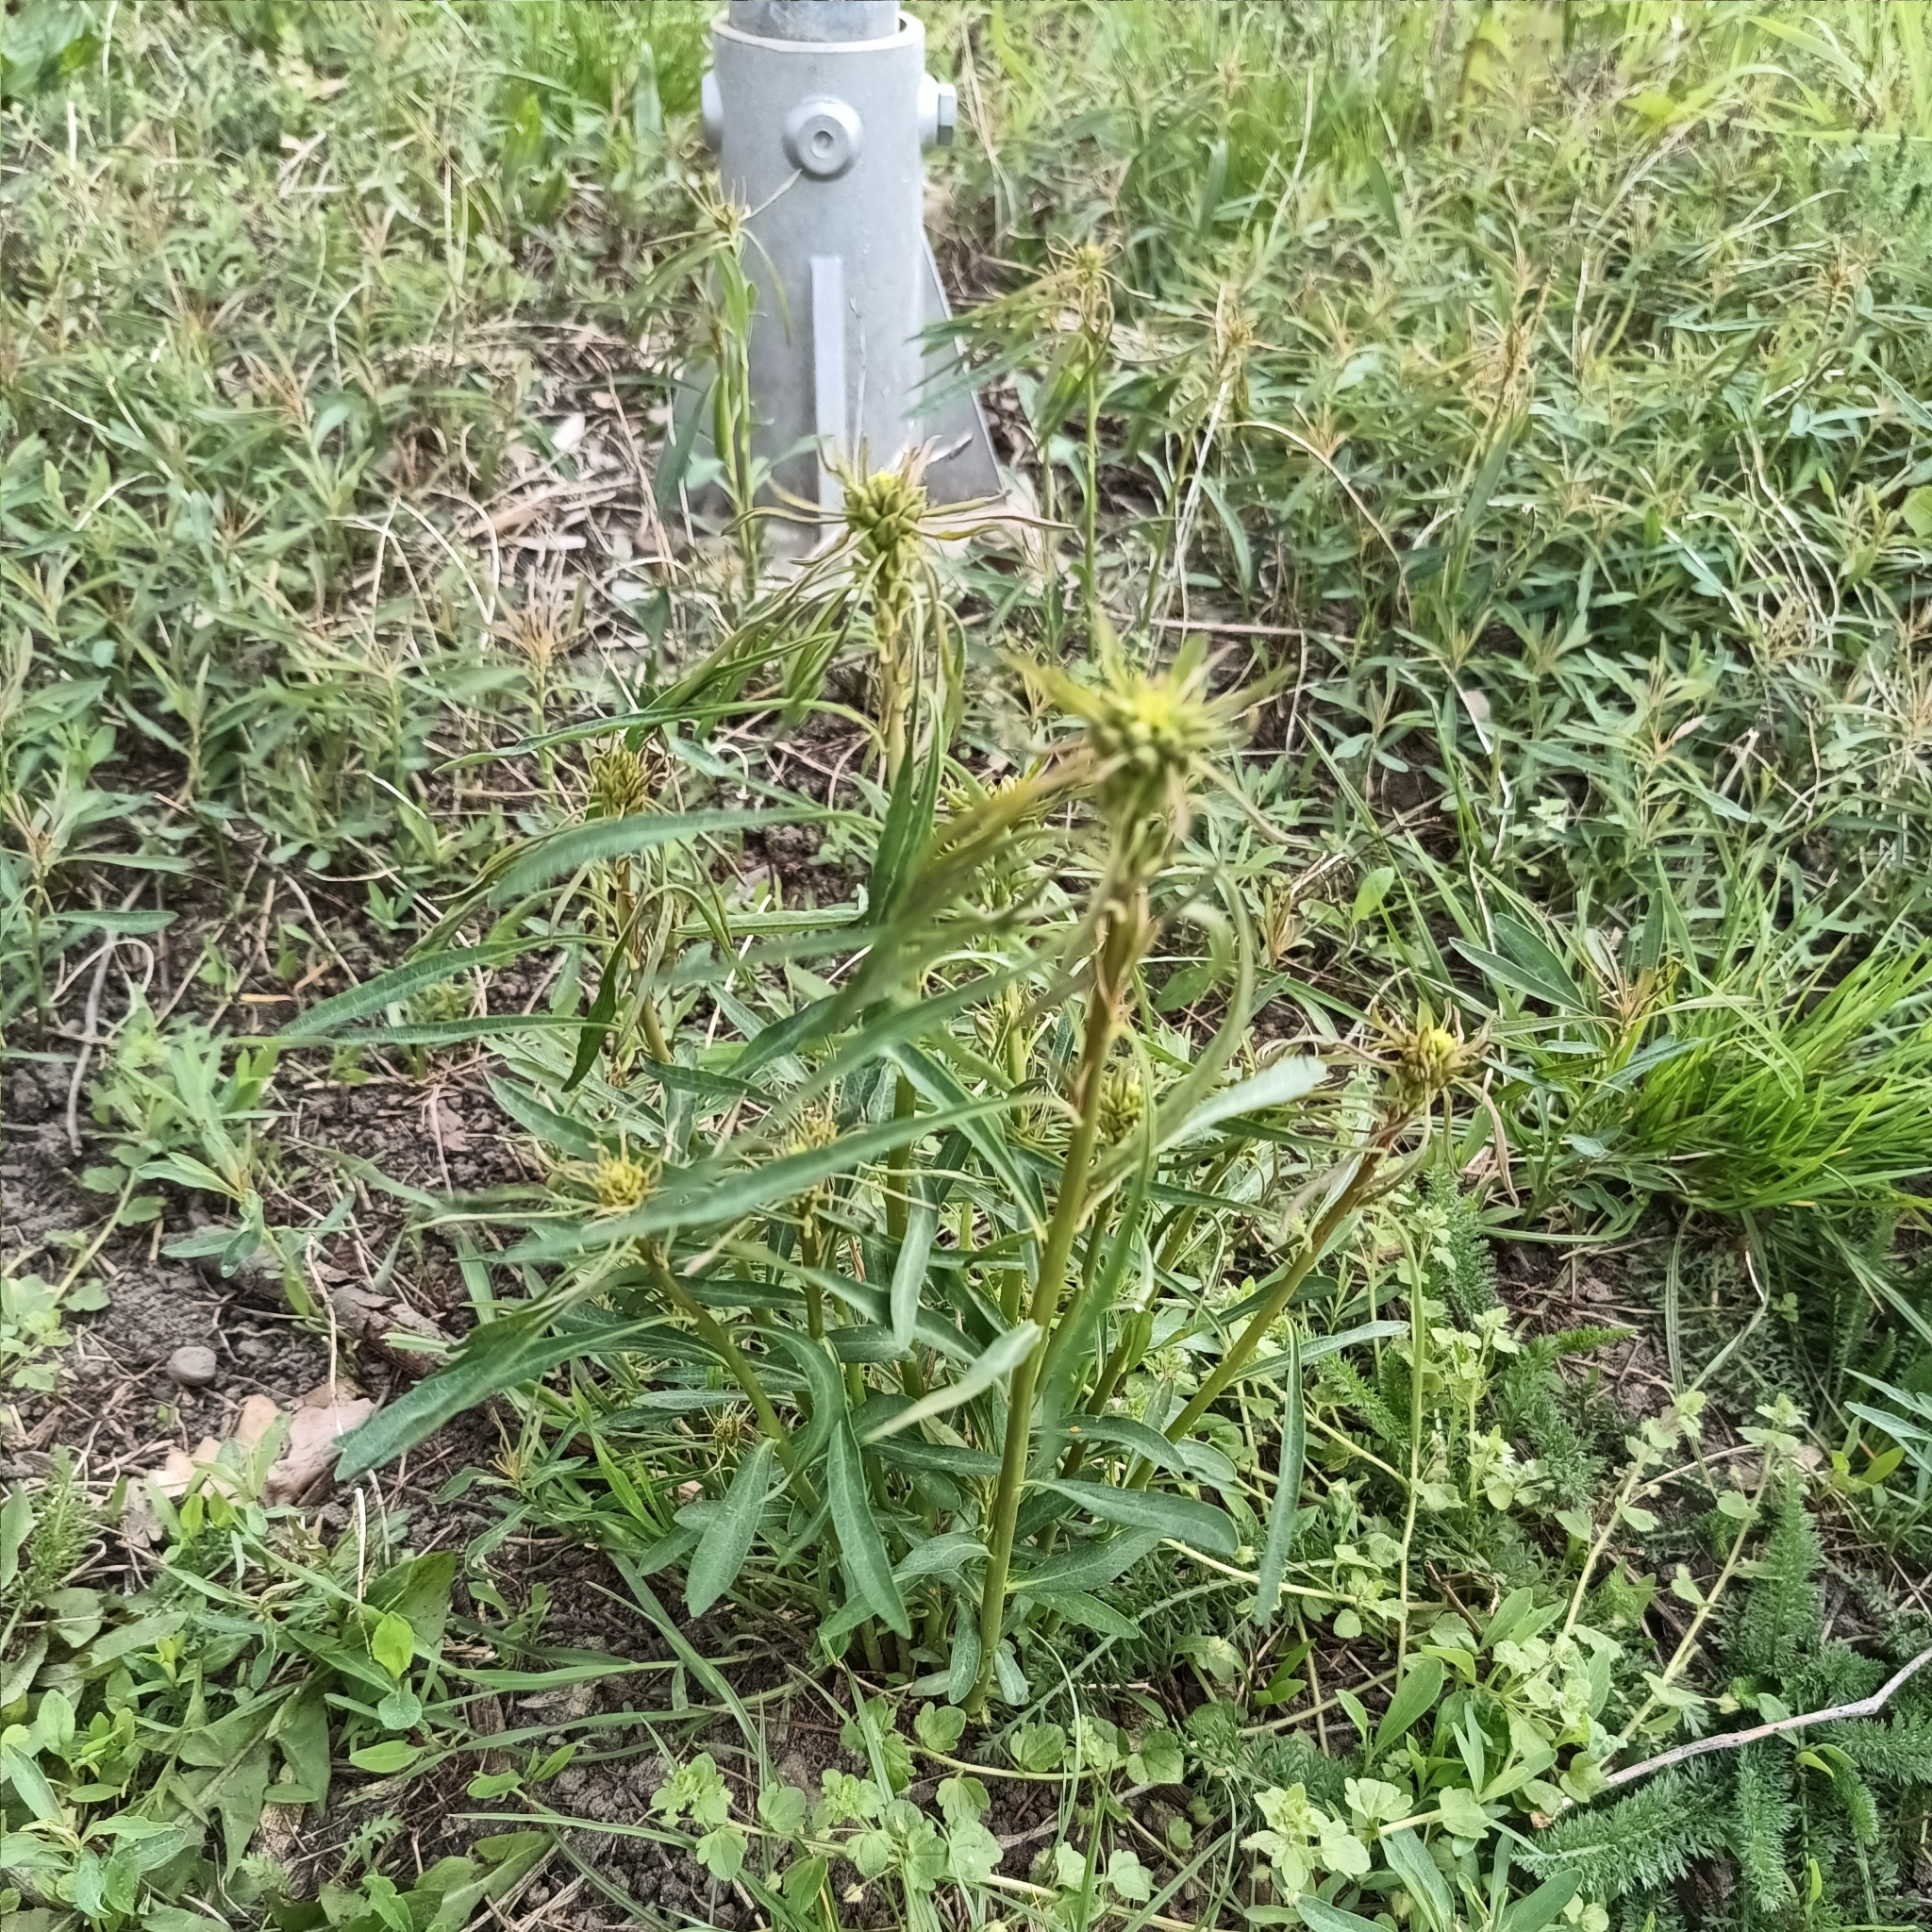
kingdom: Plantae
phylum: Tracheophyta
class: Magnoliopsida
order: Malpighiales
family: Euphorbiaceae
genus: Euphorbia
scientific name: Euphorbia esula
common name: Leafy spurge
